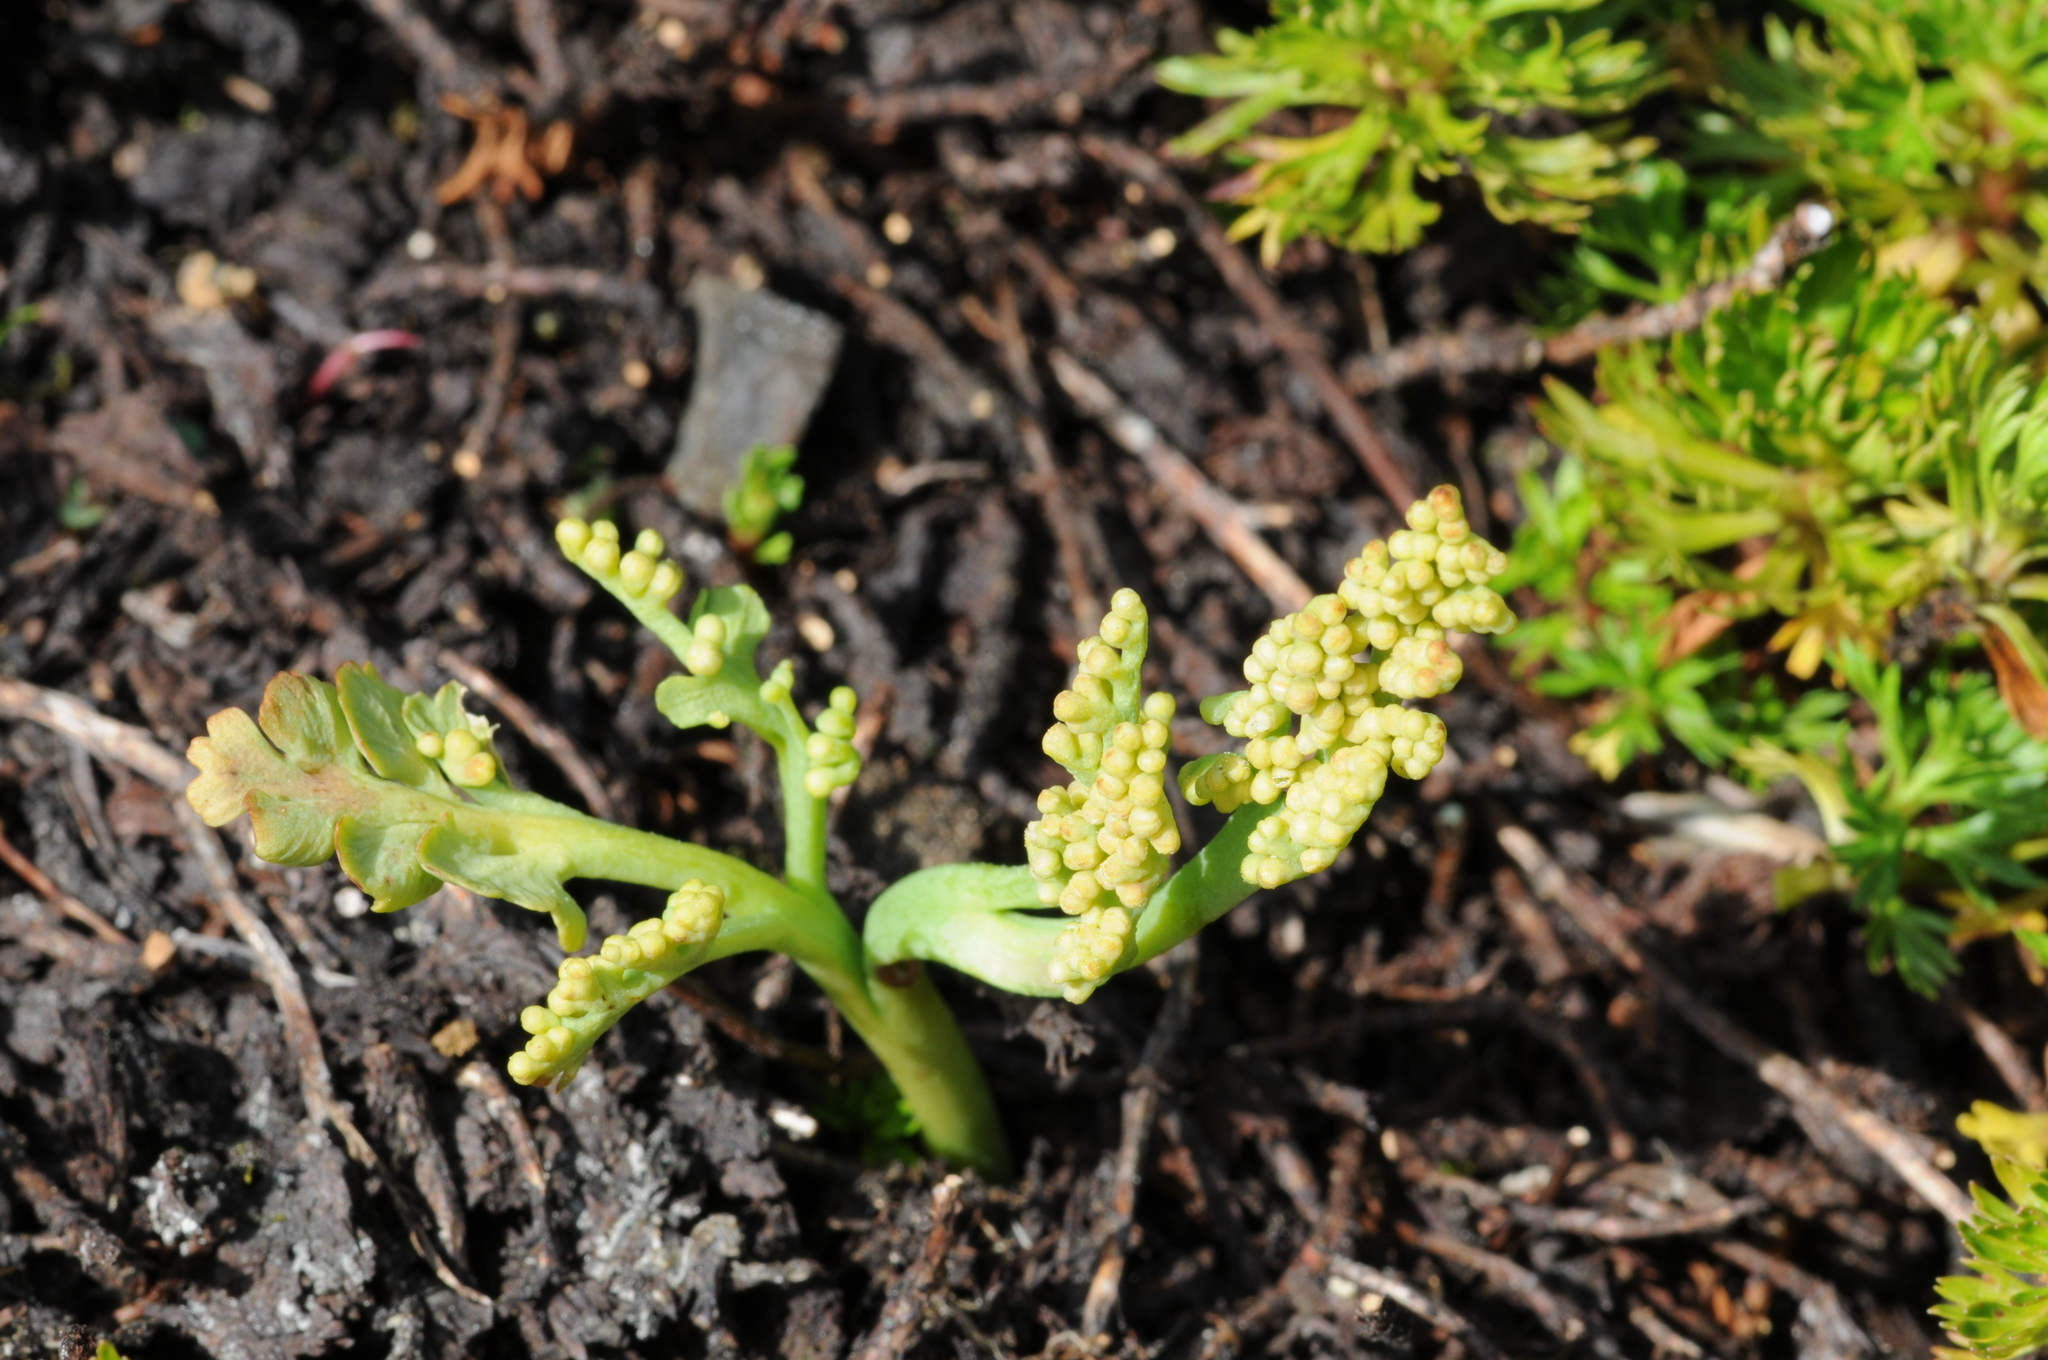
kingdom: Plantae
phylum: Tracheophyta
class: Polypodiopsida
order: Ophioglossales
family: Ophioglossaceae
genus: Botrychium
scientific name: Botrychium montanum
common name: Mountain moonwort
